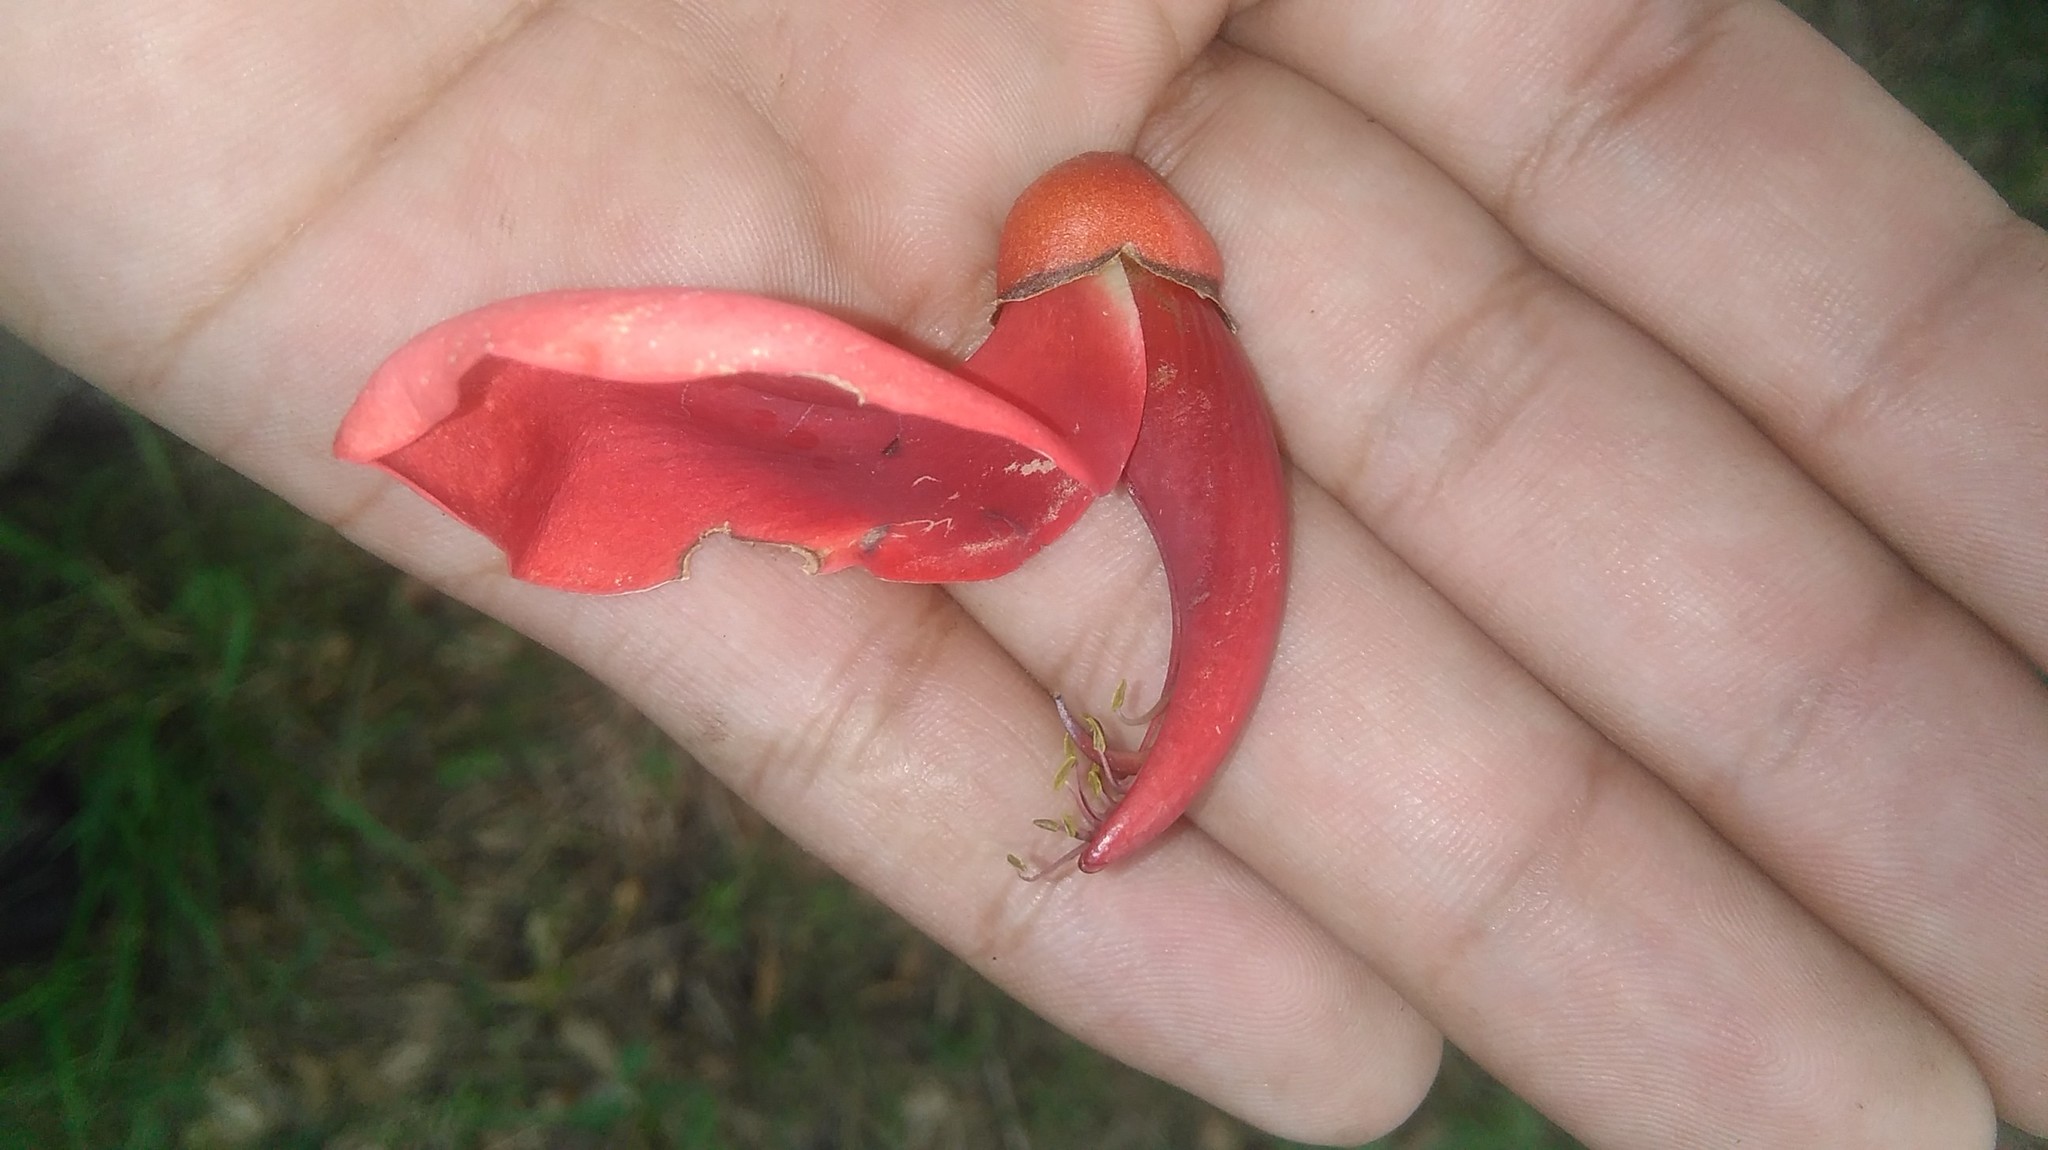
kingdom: Plantae
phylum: Tracheophyta
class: Magnoliopsida
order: Fabales
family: Fabaceae
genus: Erythrina
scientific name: Erythrina crista-galli
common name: Cockspur coral tree
